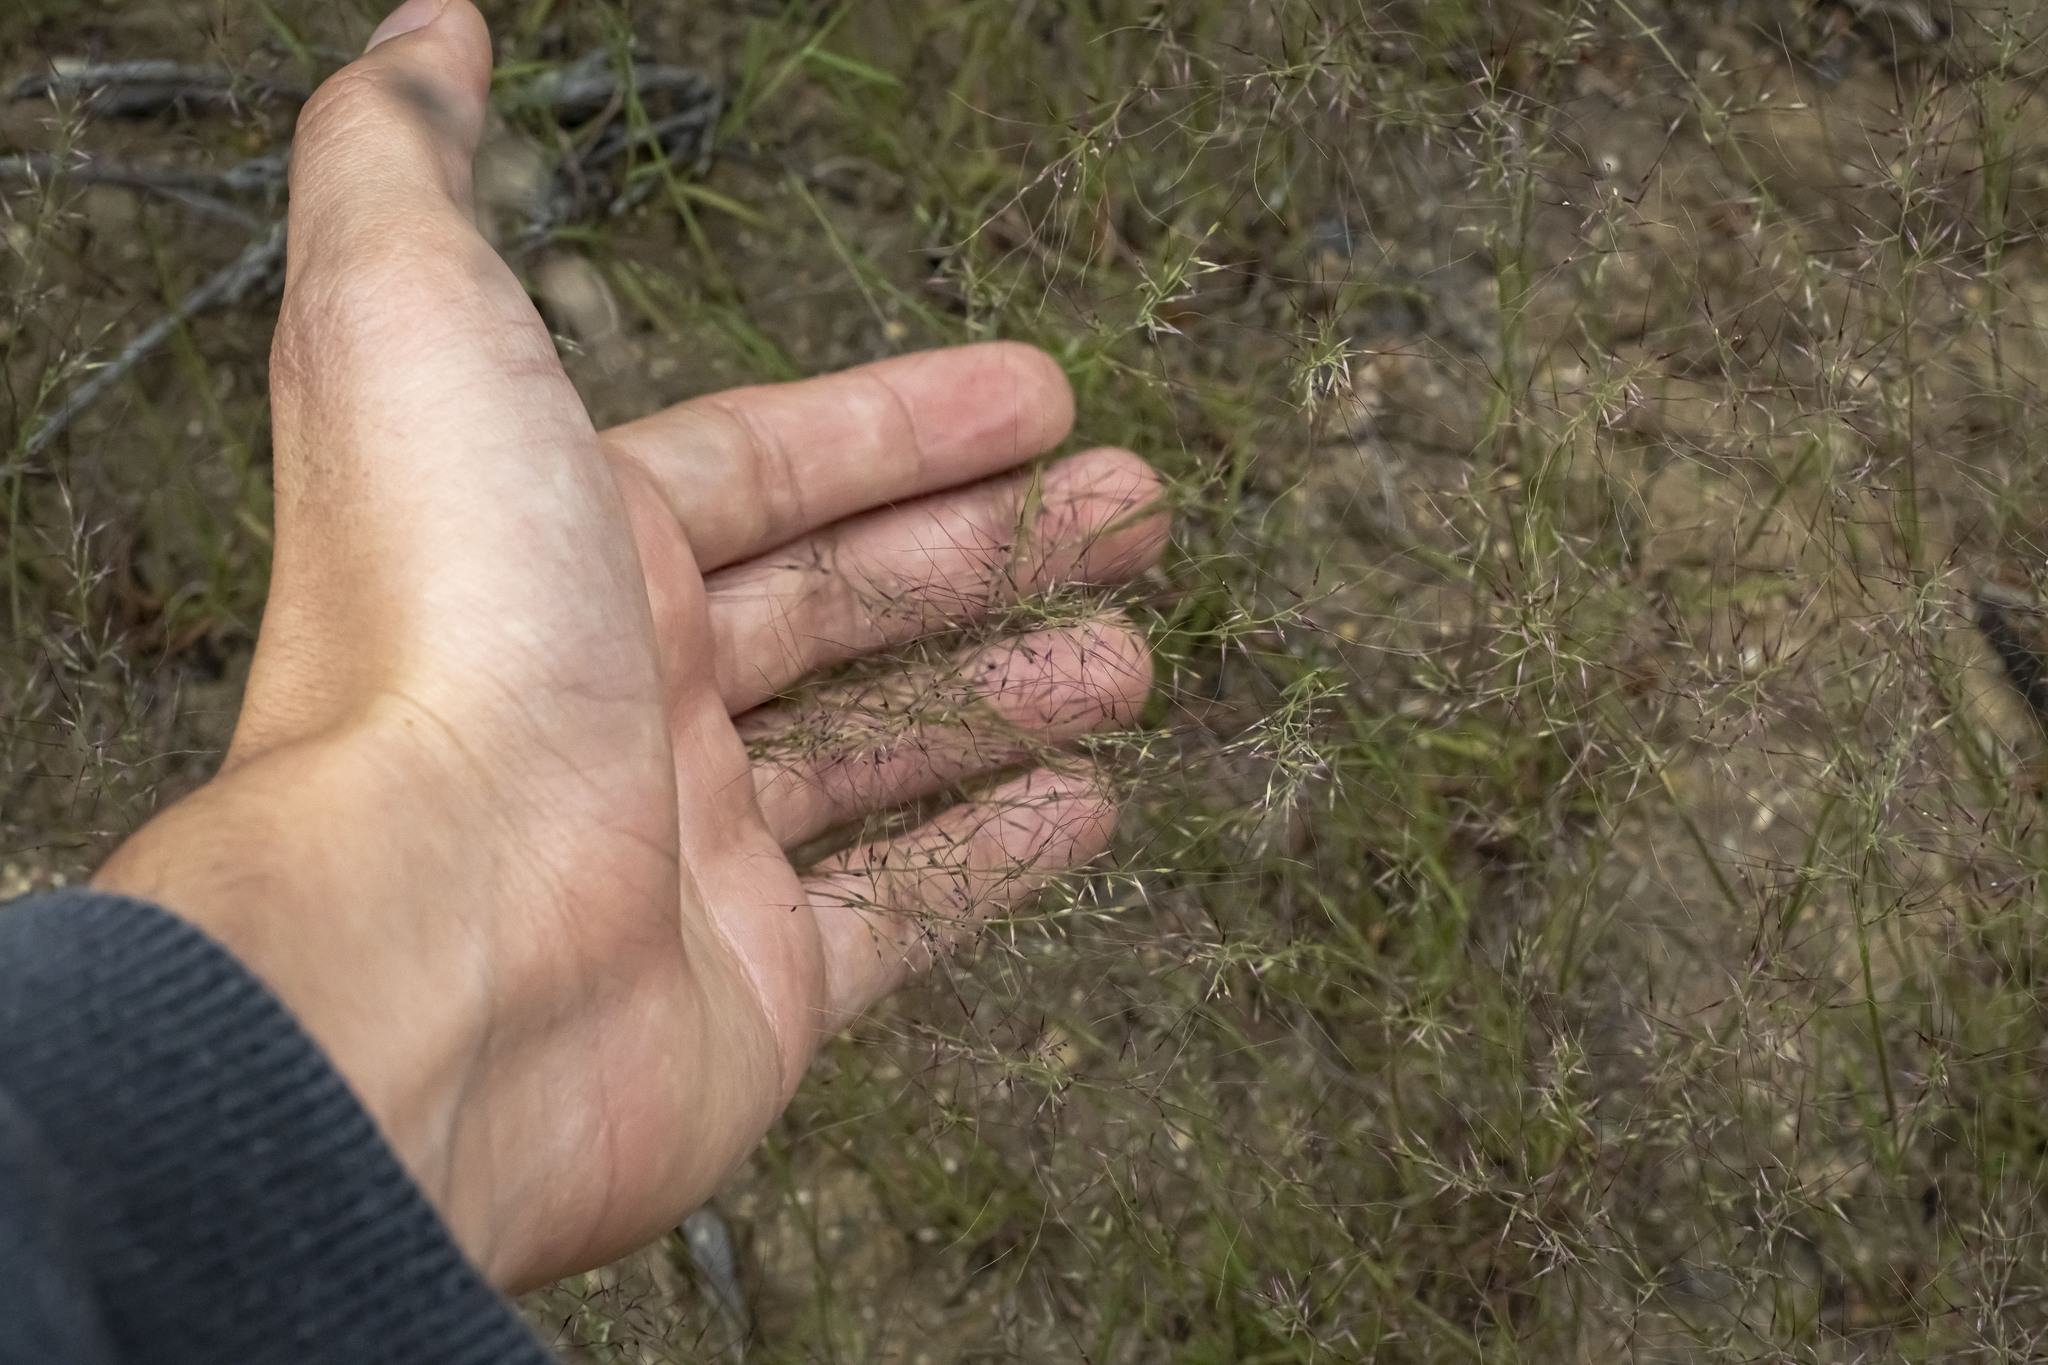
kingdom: Plantae
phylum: Tracheophyta
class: Liliopsida
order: Poales
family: Poaceae
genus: Muhlenbergia
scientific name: Muhlenbergia microsperma
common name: Littleseed muhly
